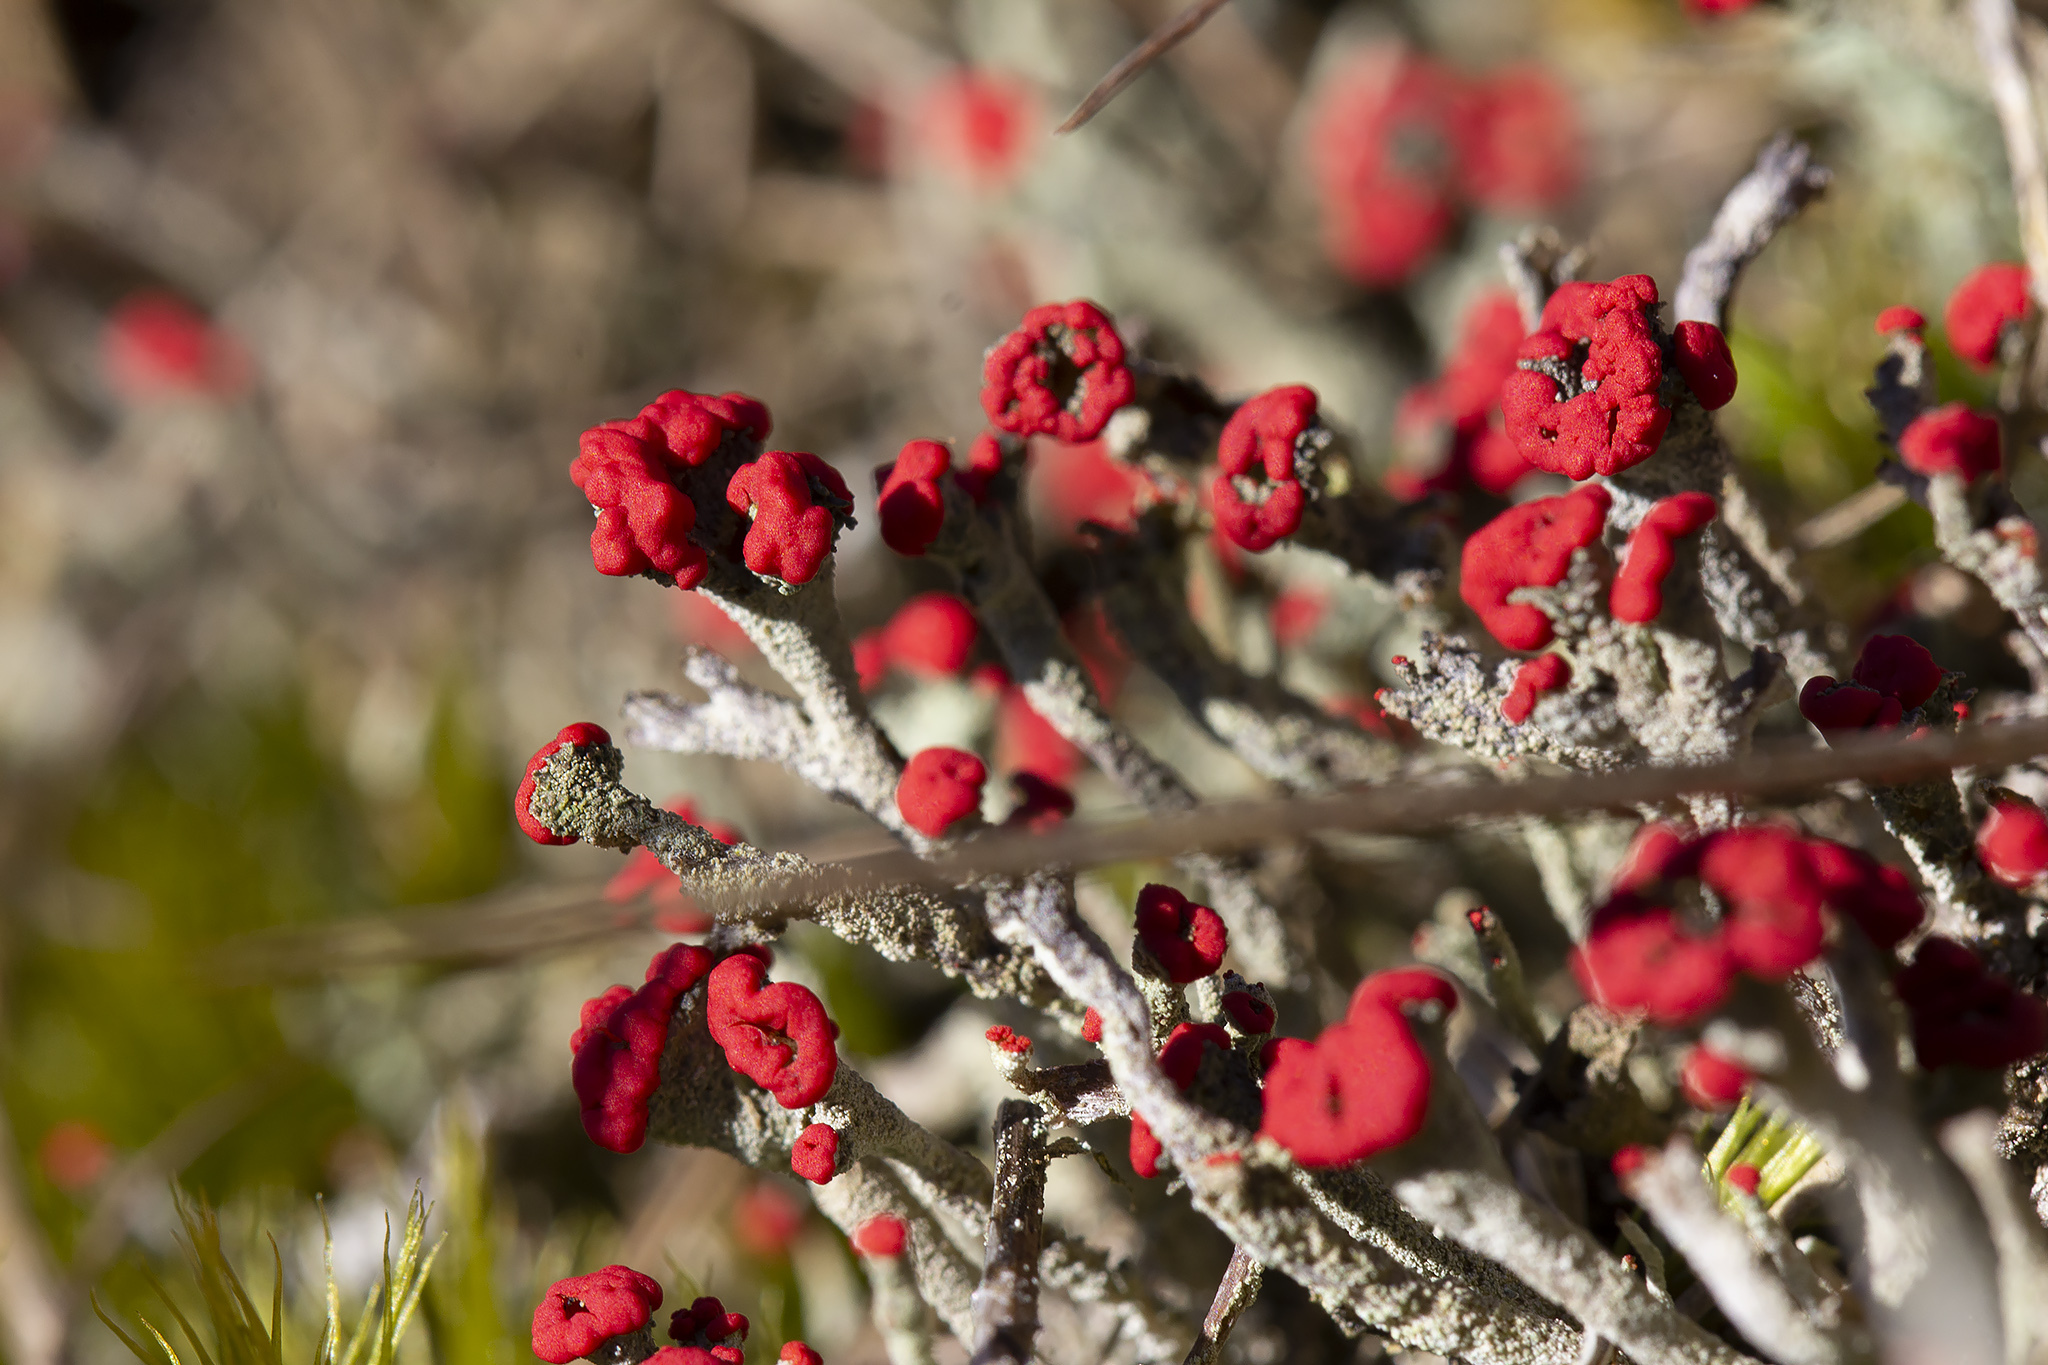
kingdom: Fungi
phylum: Ascomycota
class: Lecanoromycetes
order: Lecanorales
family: Cladoniaceae
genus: Cladonia
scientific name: Cladonia floerkeana
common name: Gritty british soldiers lichen
